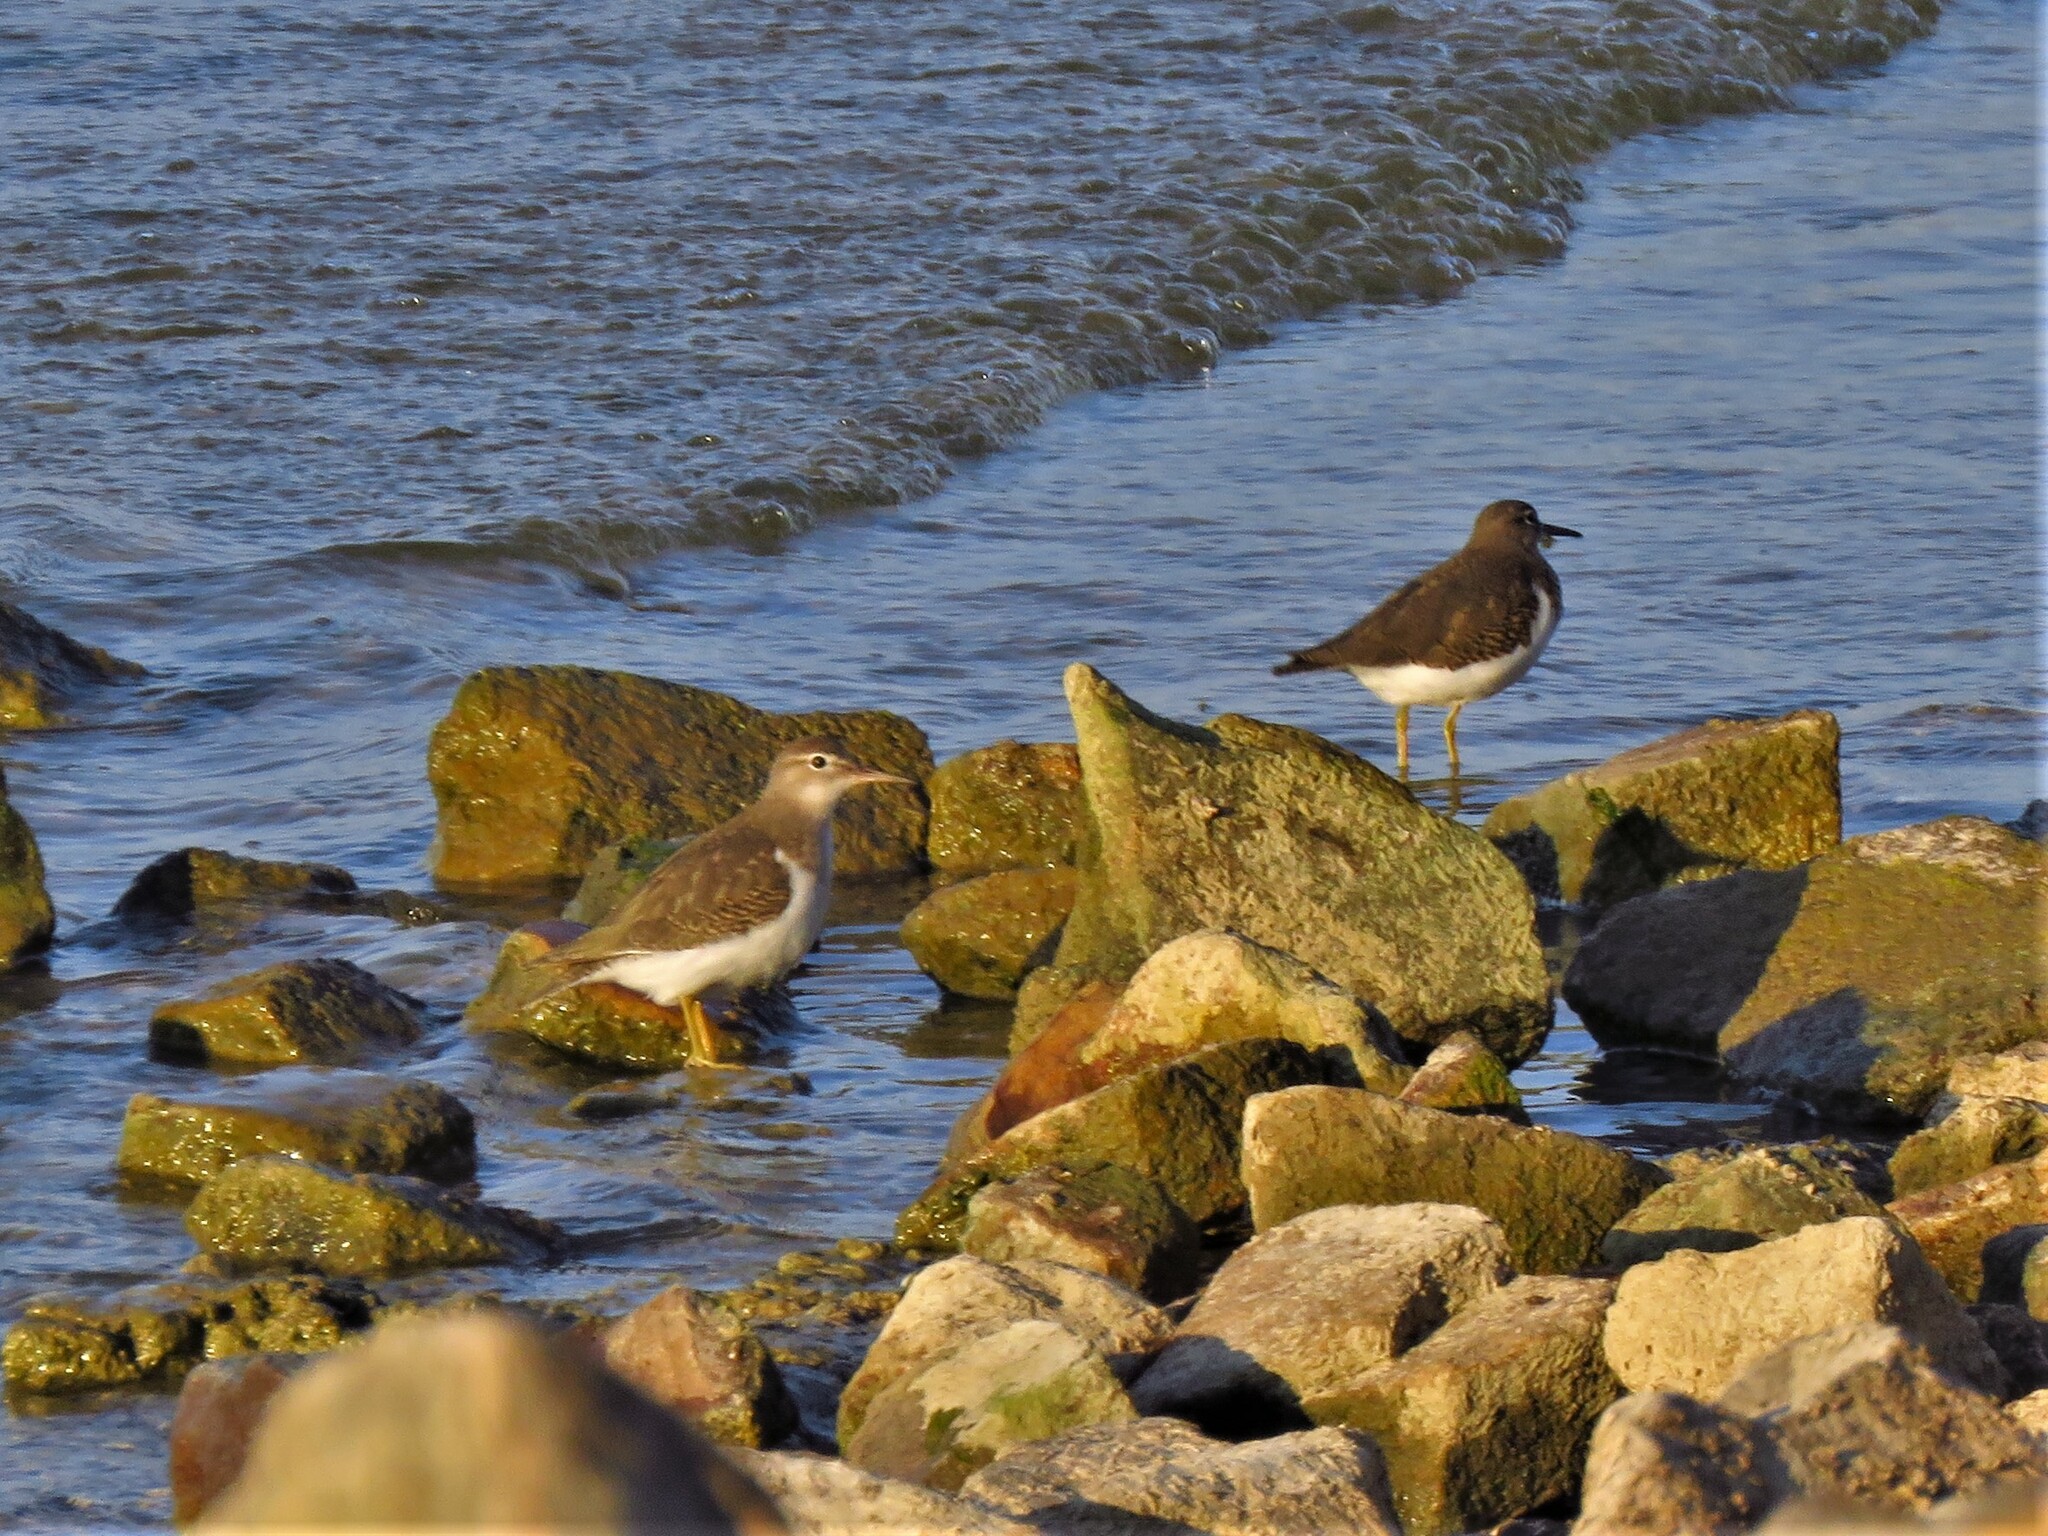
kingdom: Animalia
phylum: Chordata
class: Aves
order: Charadriiformes
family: Scolopacidae
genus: Actitis
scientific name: Actitis macularius
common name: Spotted sandpiper
